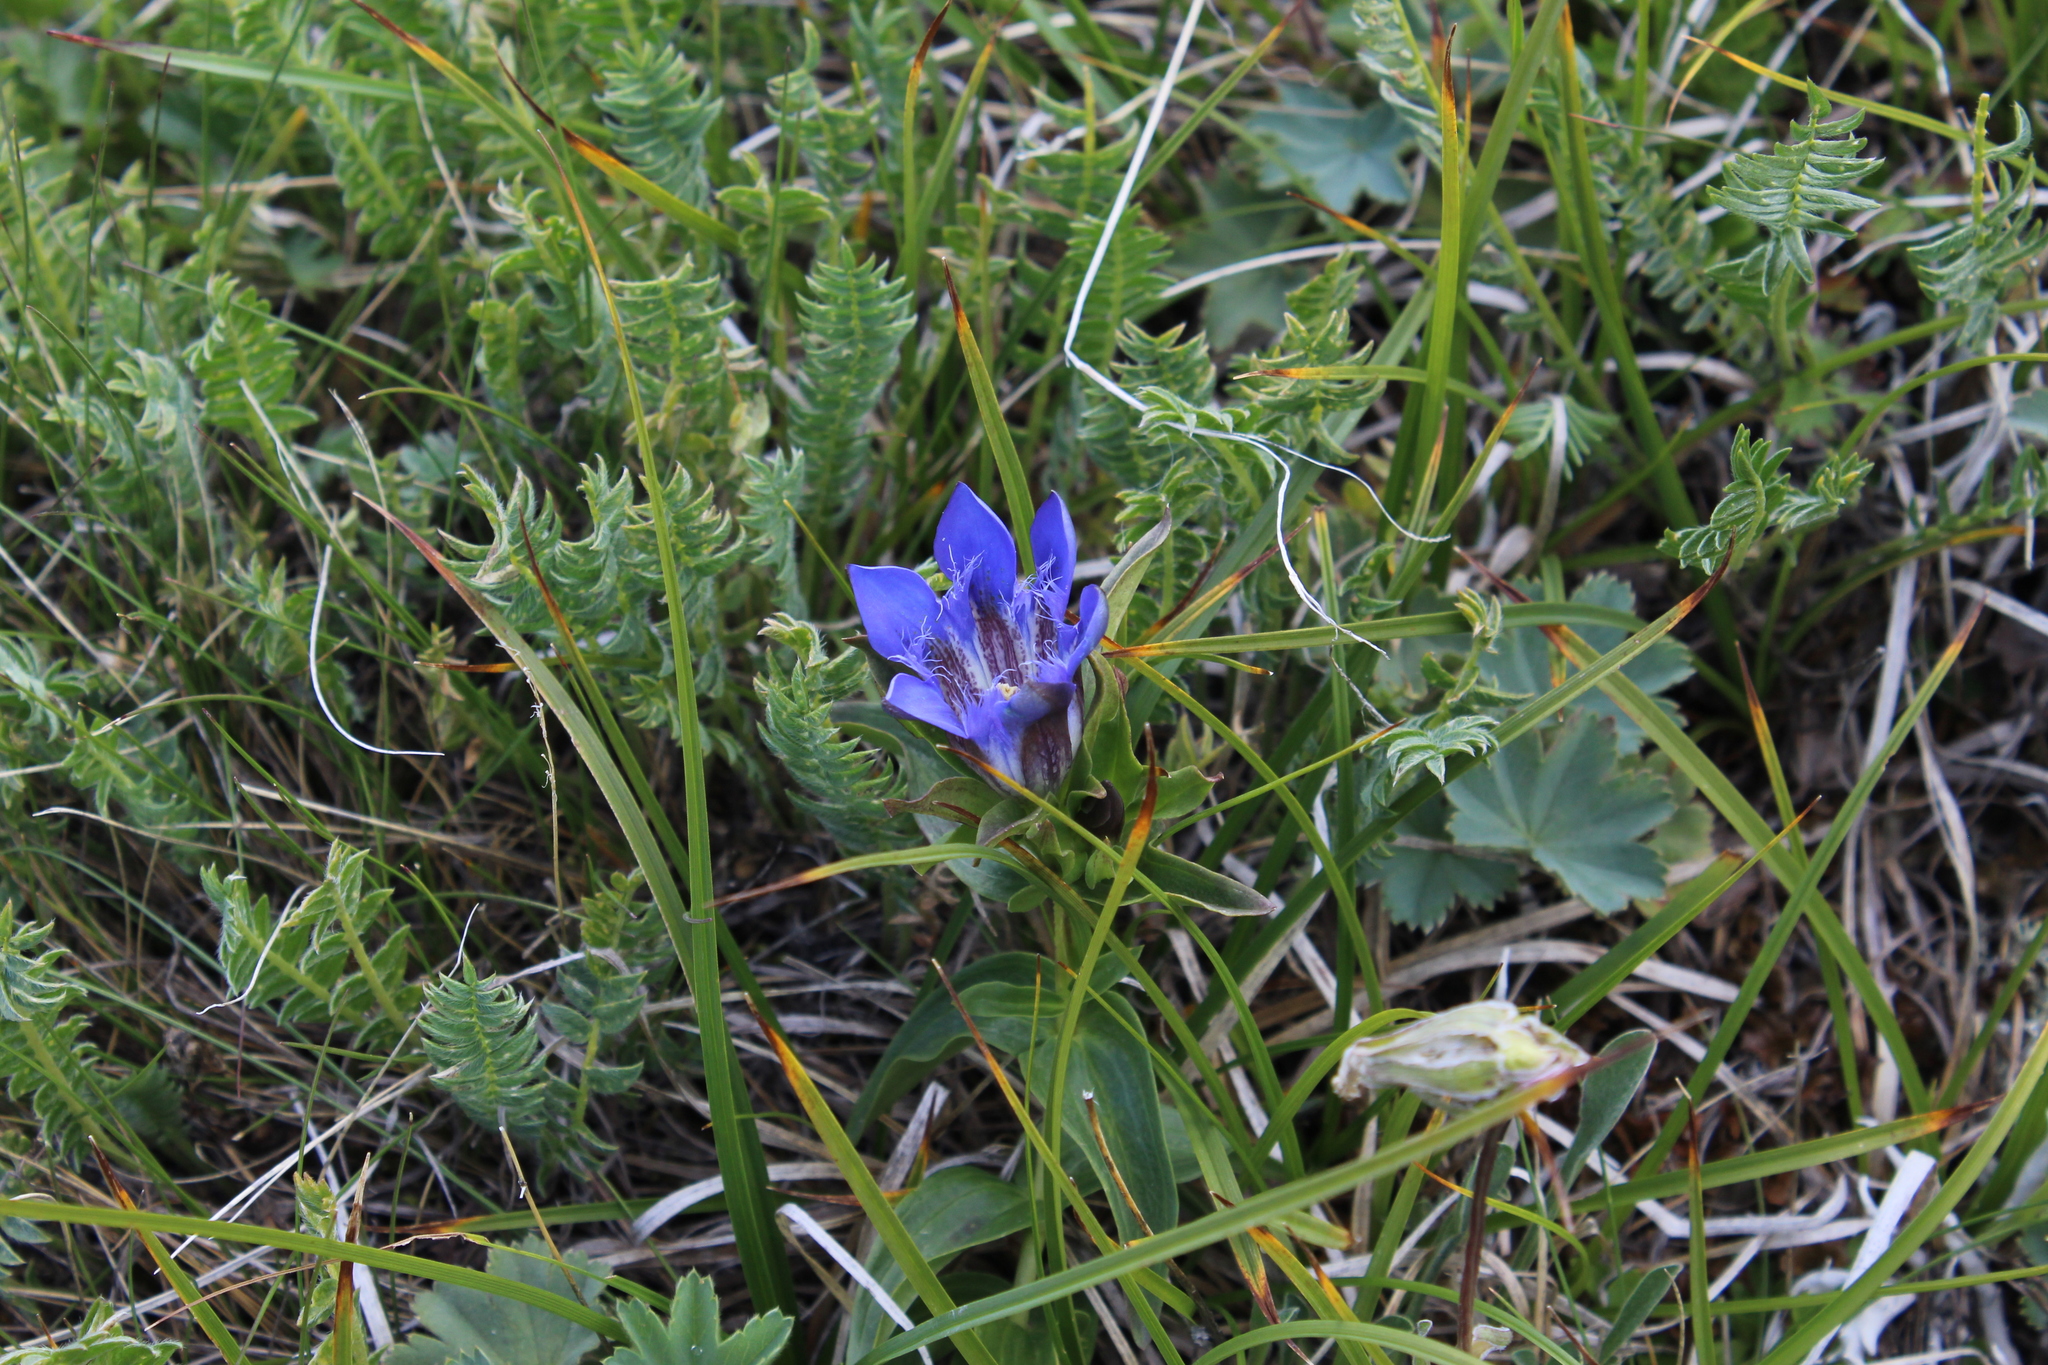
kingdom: Plantae
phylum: Tracheophyta
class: Magnoliopsida
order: Gentianales
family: Gentianaceae
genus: Gentiana
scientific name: Gentiana septemfida
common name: Crested gentian
